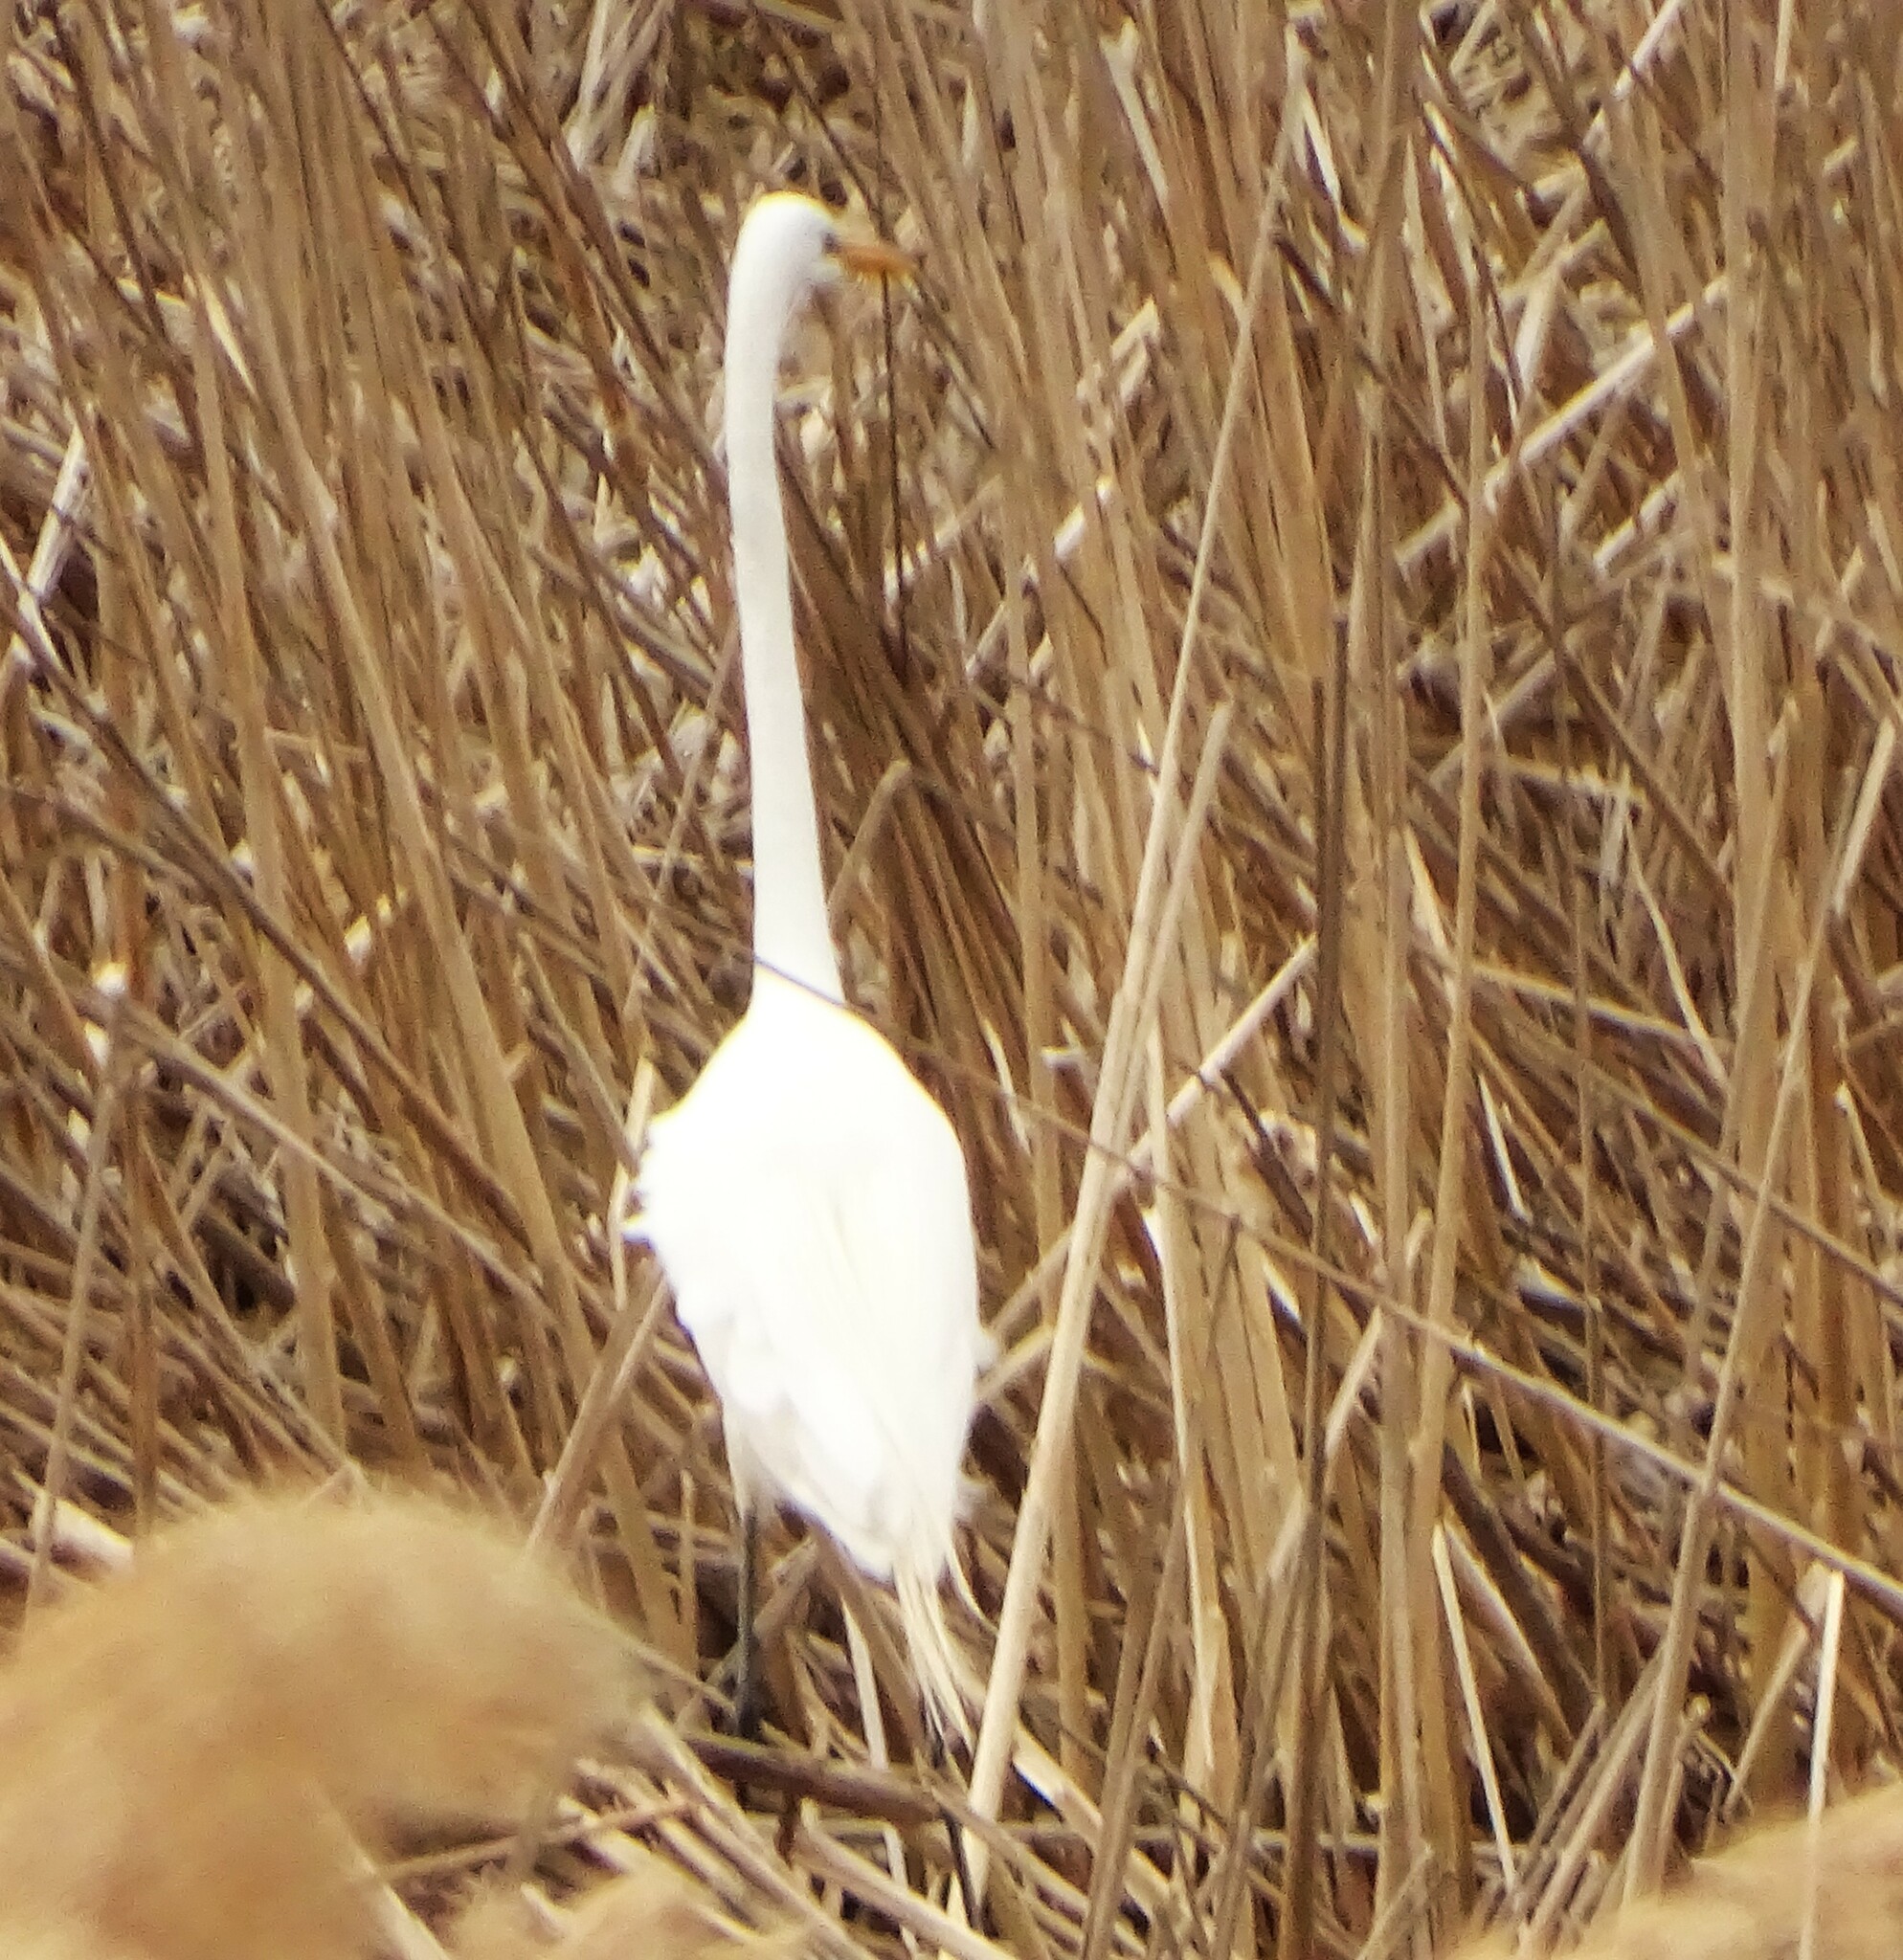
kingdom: Animalia
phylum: Chordata
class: Aves
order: Pelecaniformes
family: Ardeidae
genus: Ardea
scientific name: Ardea alba
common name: Great egret
